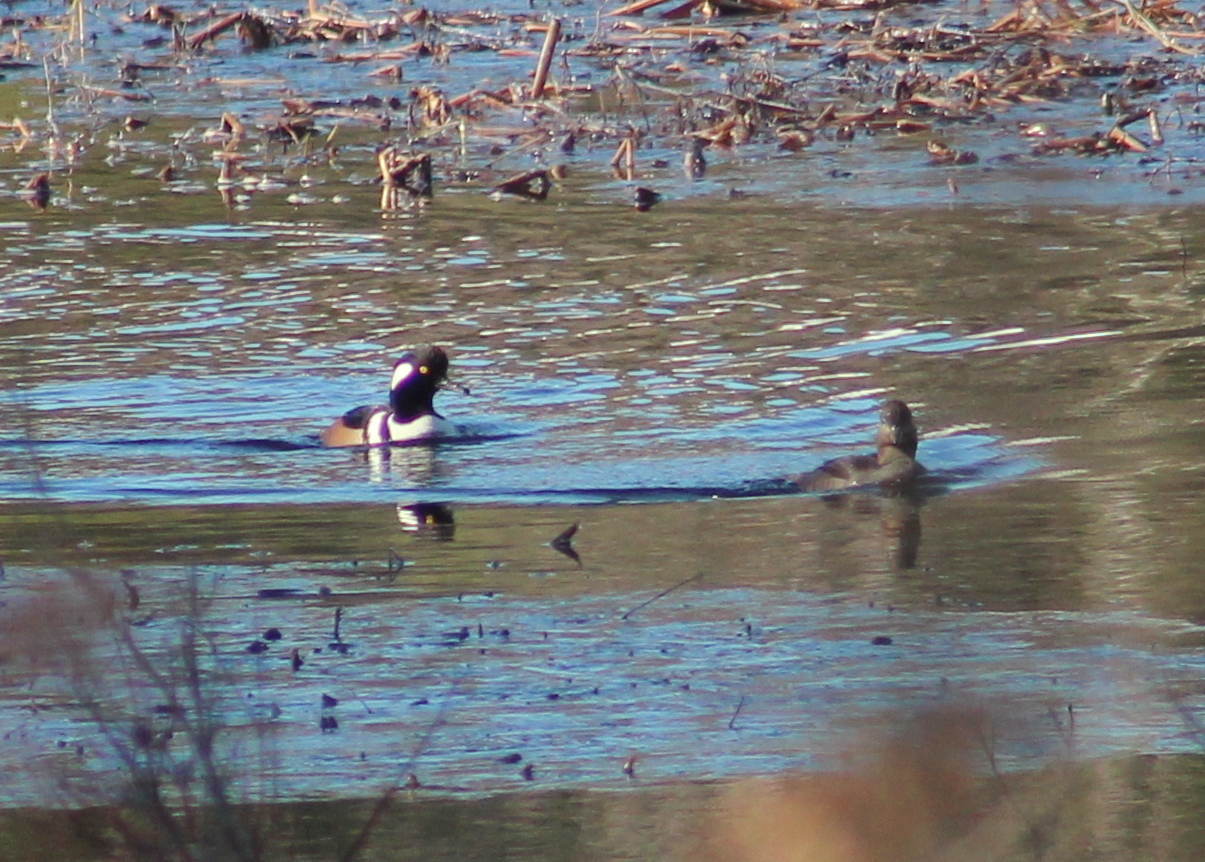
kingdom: Animalia
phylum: Chordata
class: Aves
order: Anseriformes
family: Anatidae
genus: Lophodytes
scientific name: Lophodytes cucullatus
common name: Hooded merganser
